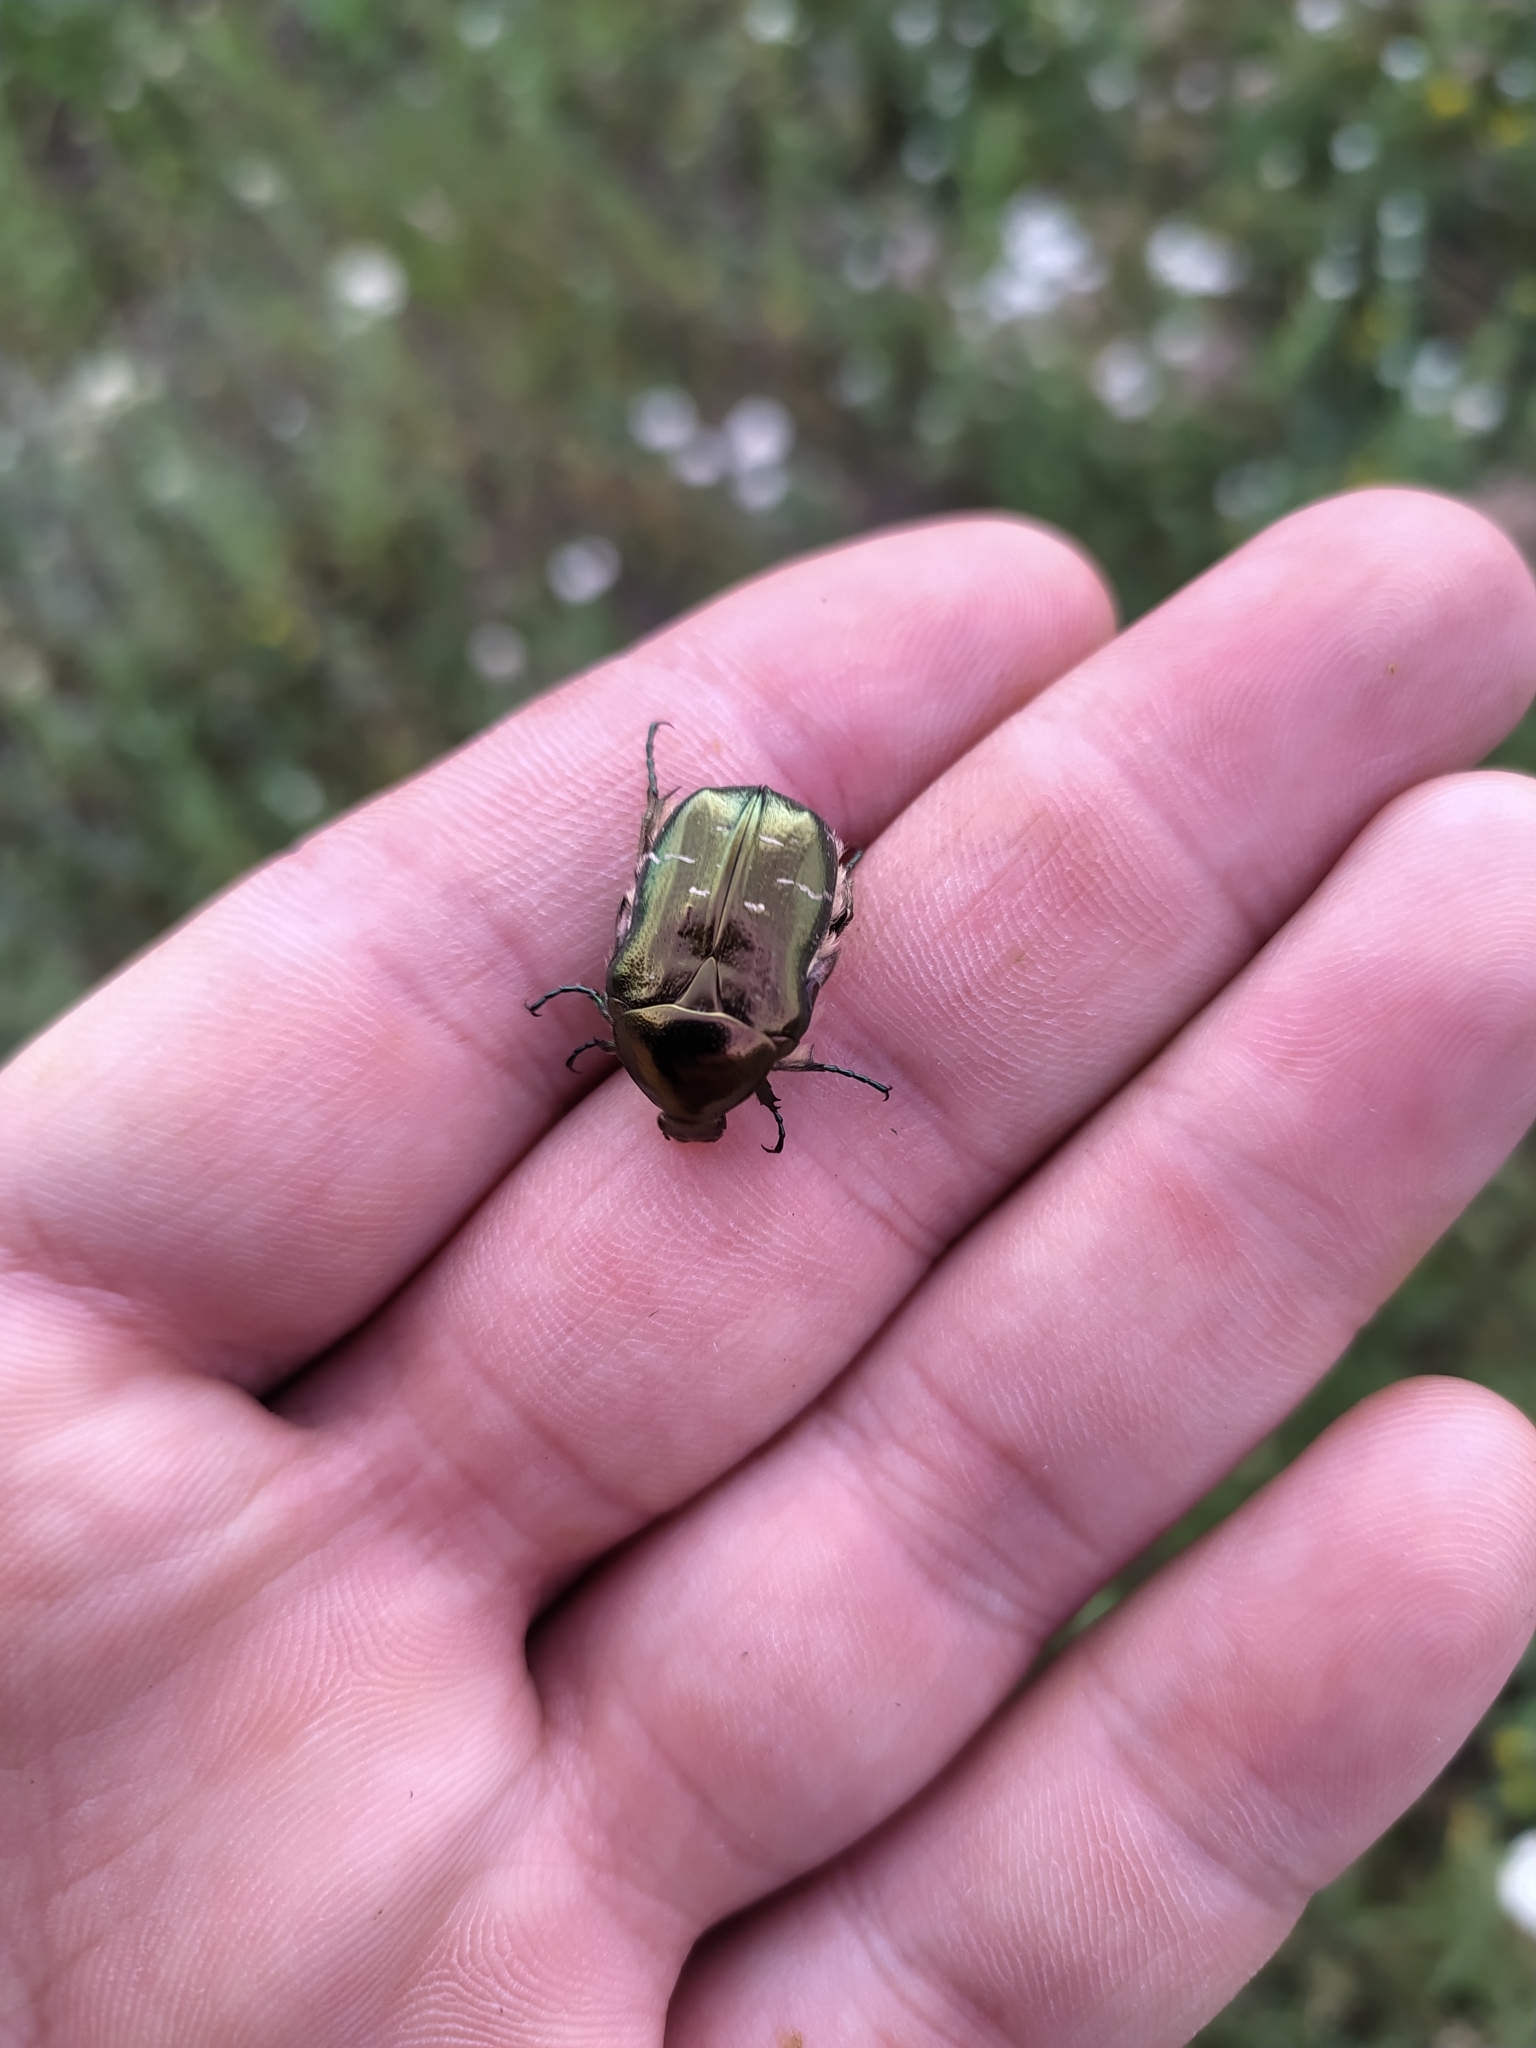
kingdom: Animalia
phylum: Arthropoda
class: Insecta
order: Coleoptera
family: Scarabaeidae
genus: Cetonia
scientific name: Cetonia aurata
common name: Rose chafer
